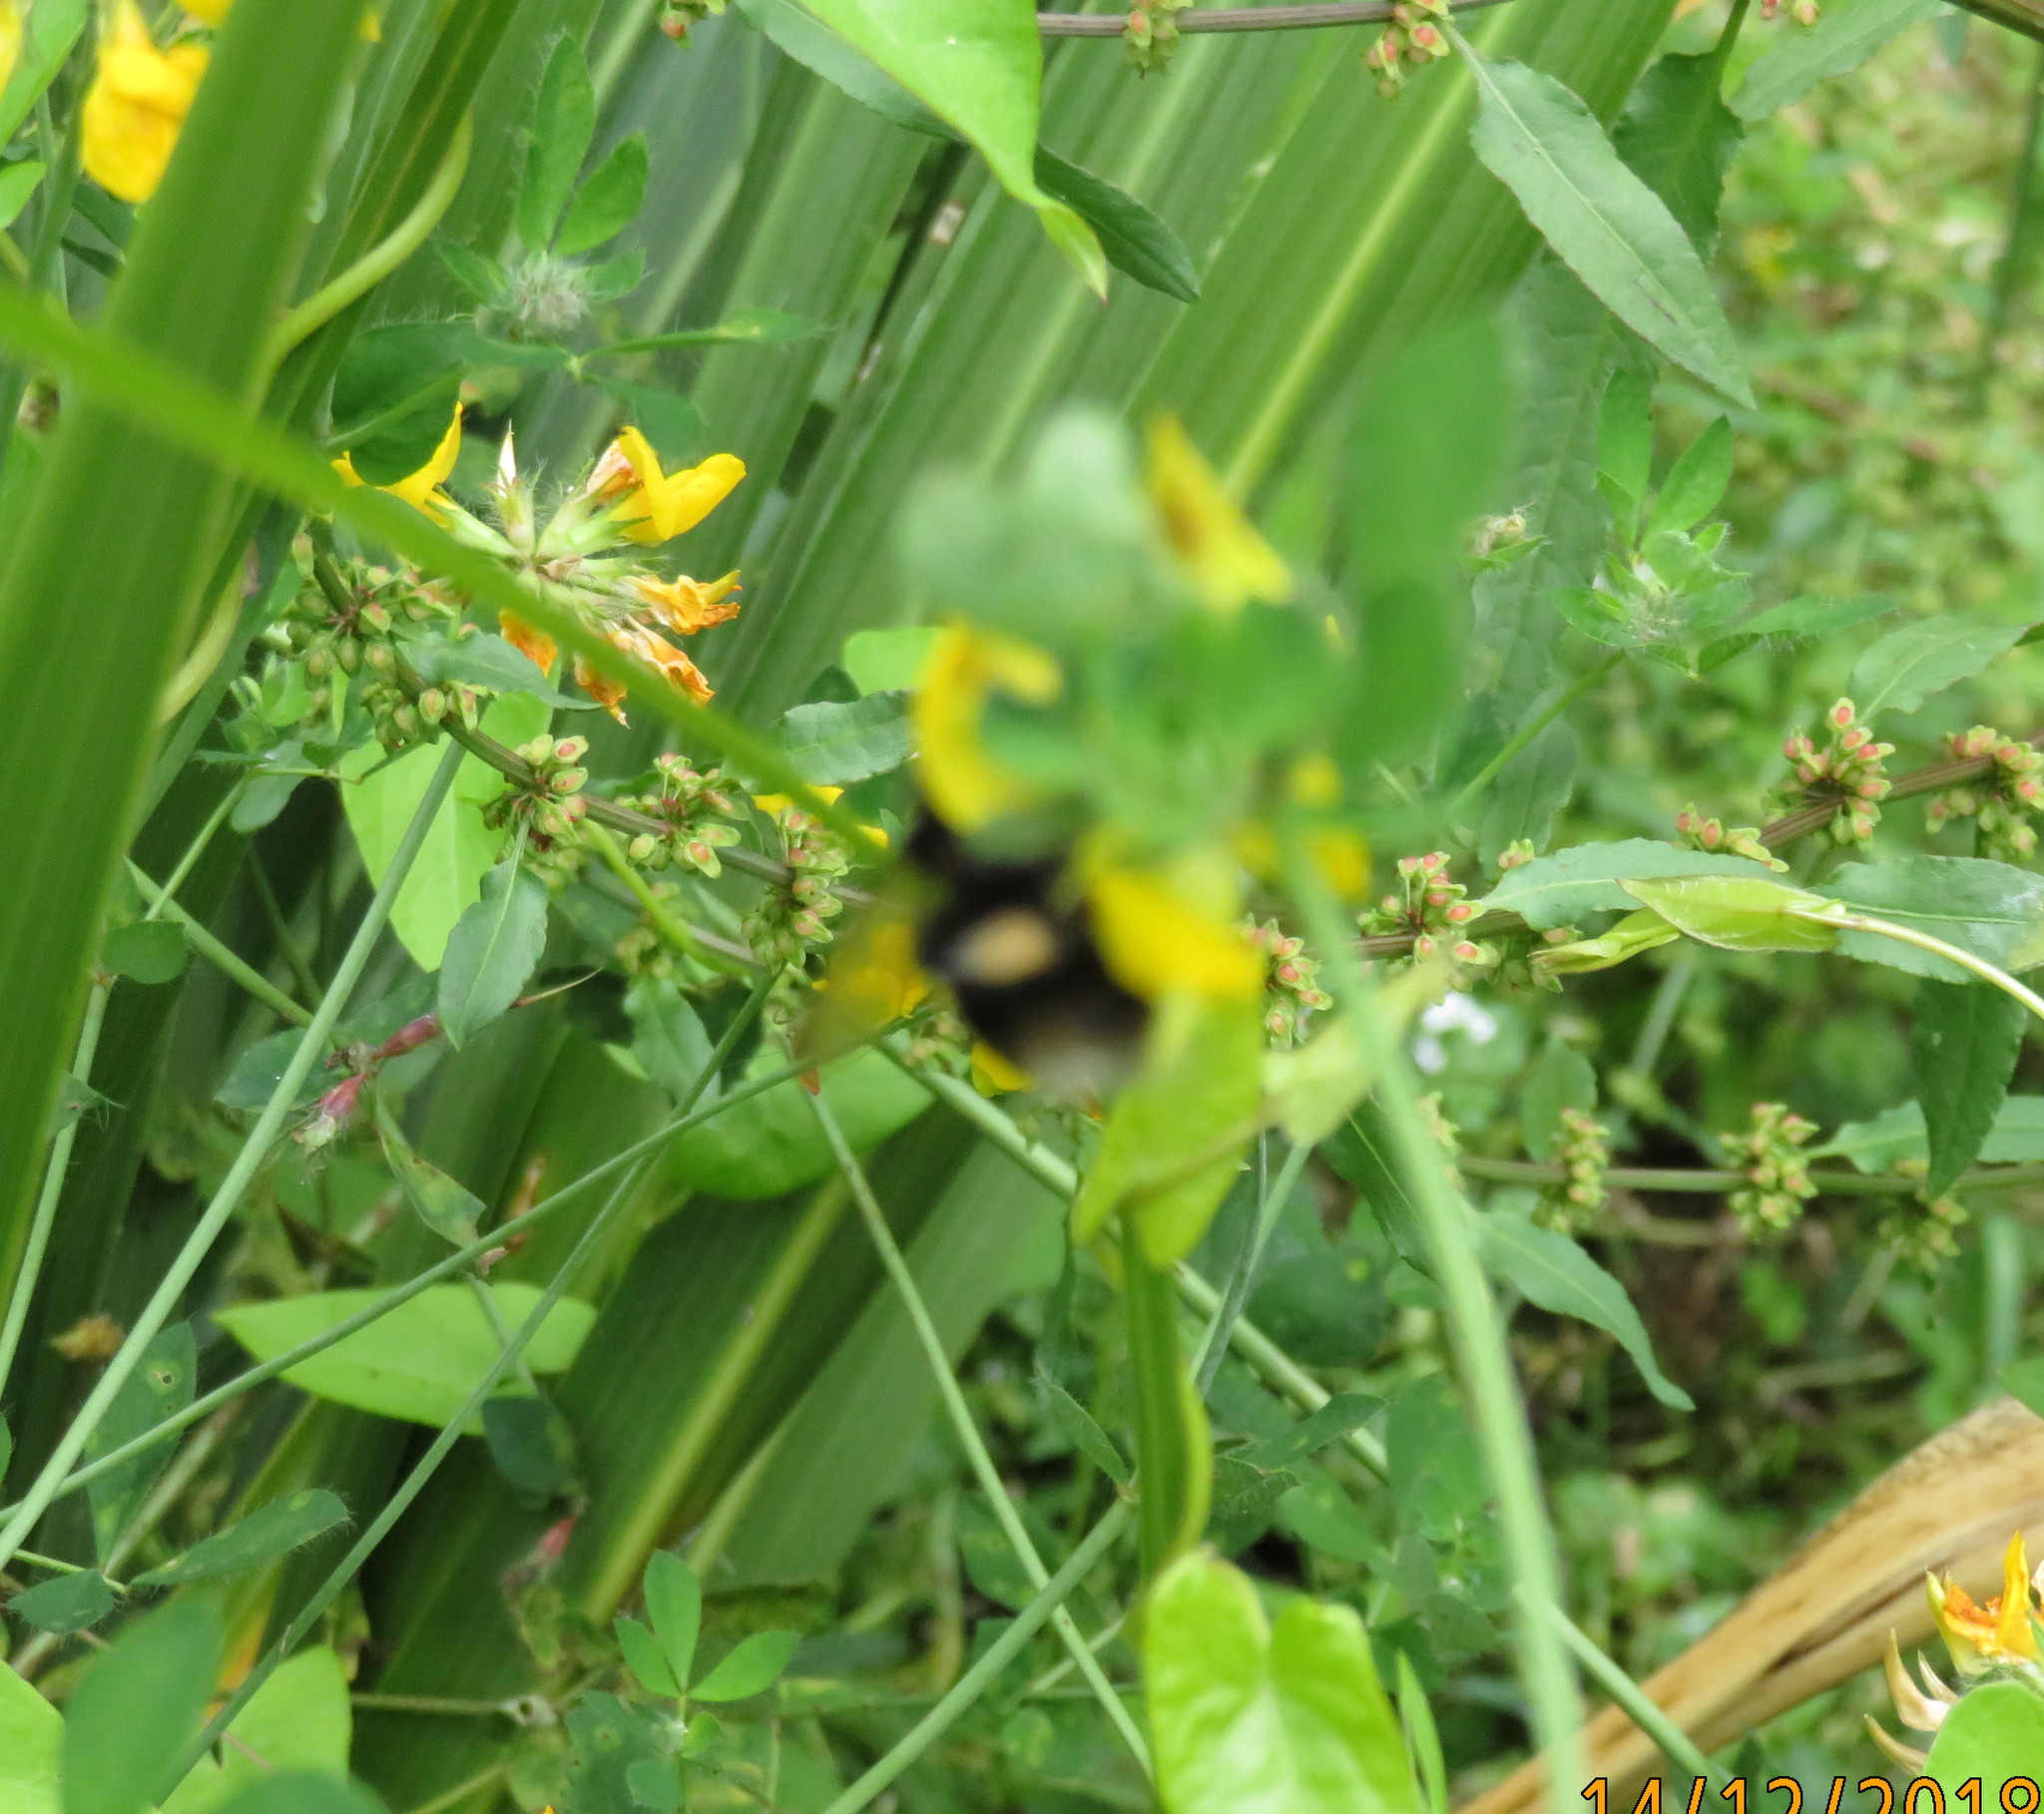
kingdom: Animalia
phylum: Arthropoda
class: Insecta
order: Hymenoptera
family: Apidae
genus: Bombus
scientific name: Bombus terrestris
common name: Buff-tailed bumblebee
